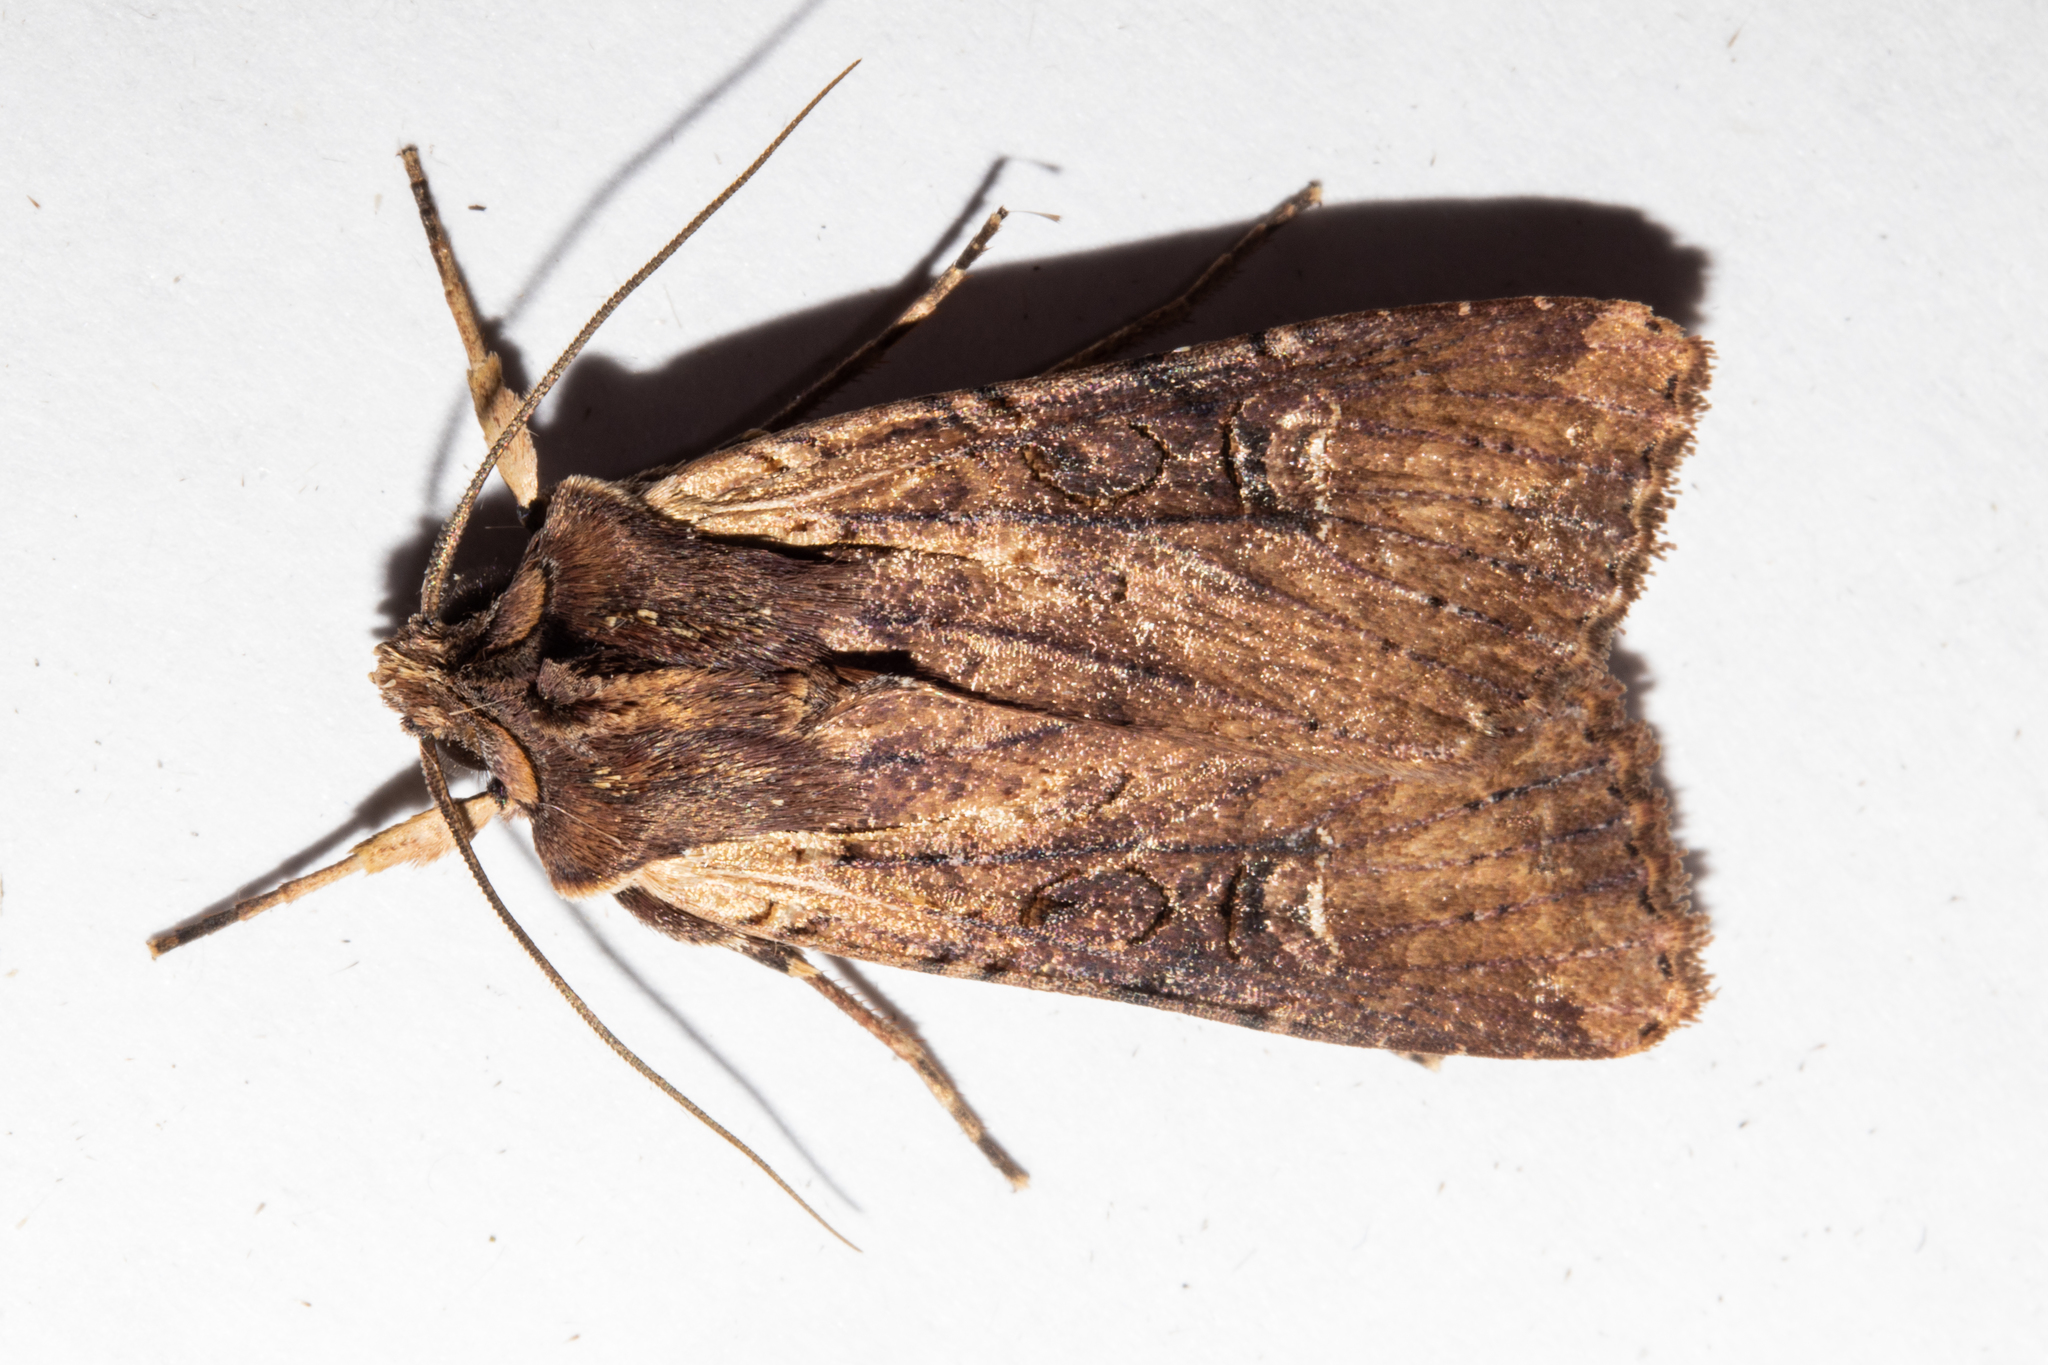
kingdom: Animalia
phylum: Arthropoda
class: Insecta
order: Lepidoptera
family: Noctuidae
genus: Ichneutica
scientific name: Ichneutica omoplaca
